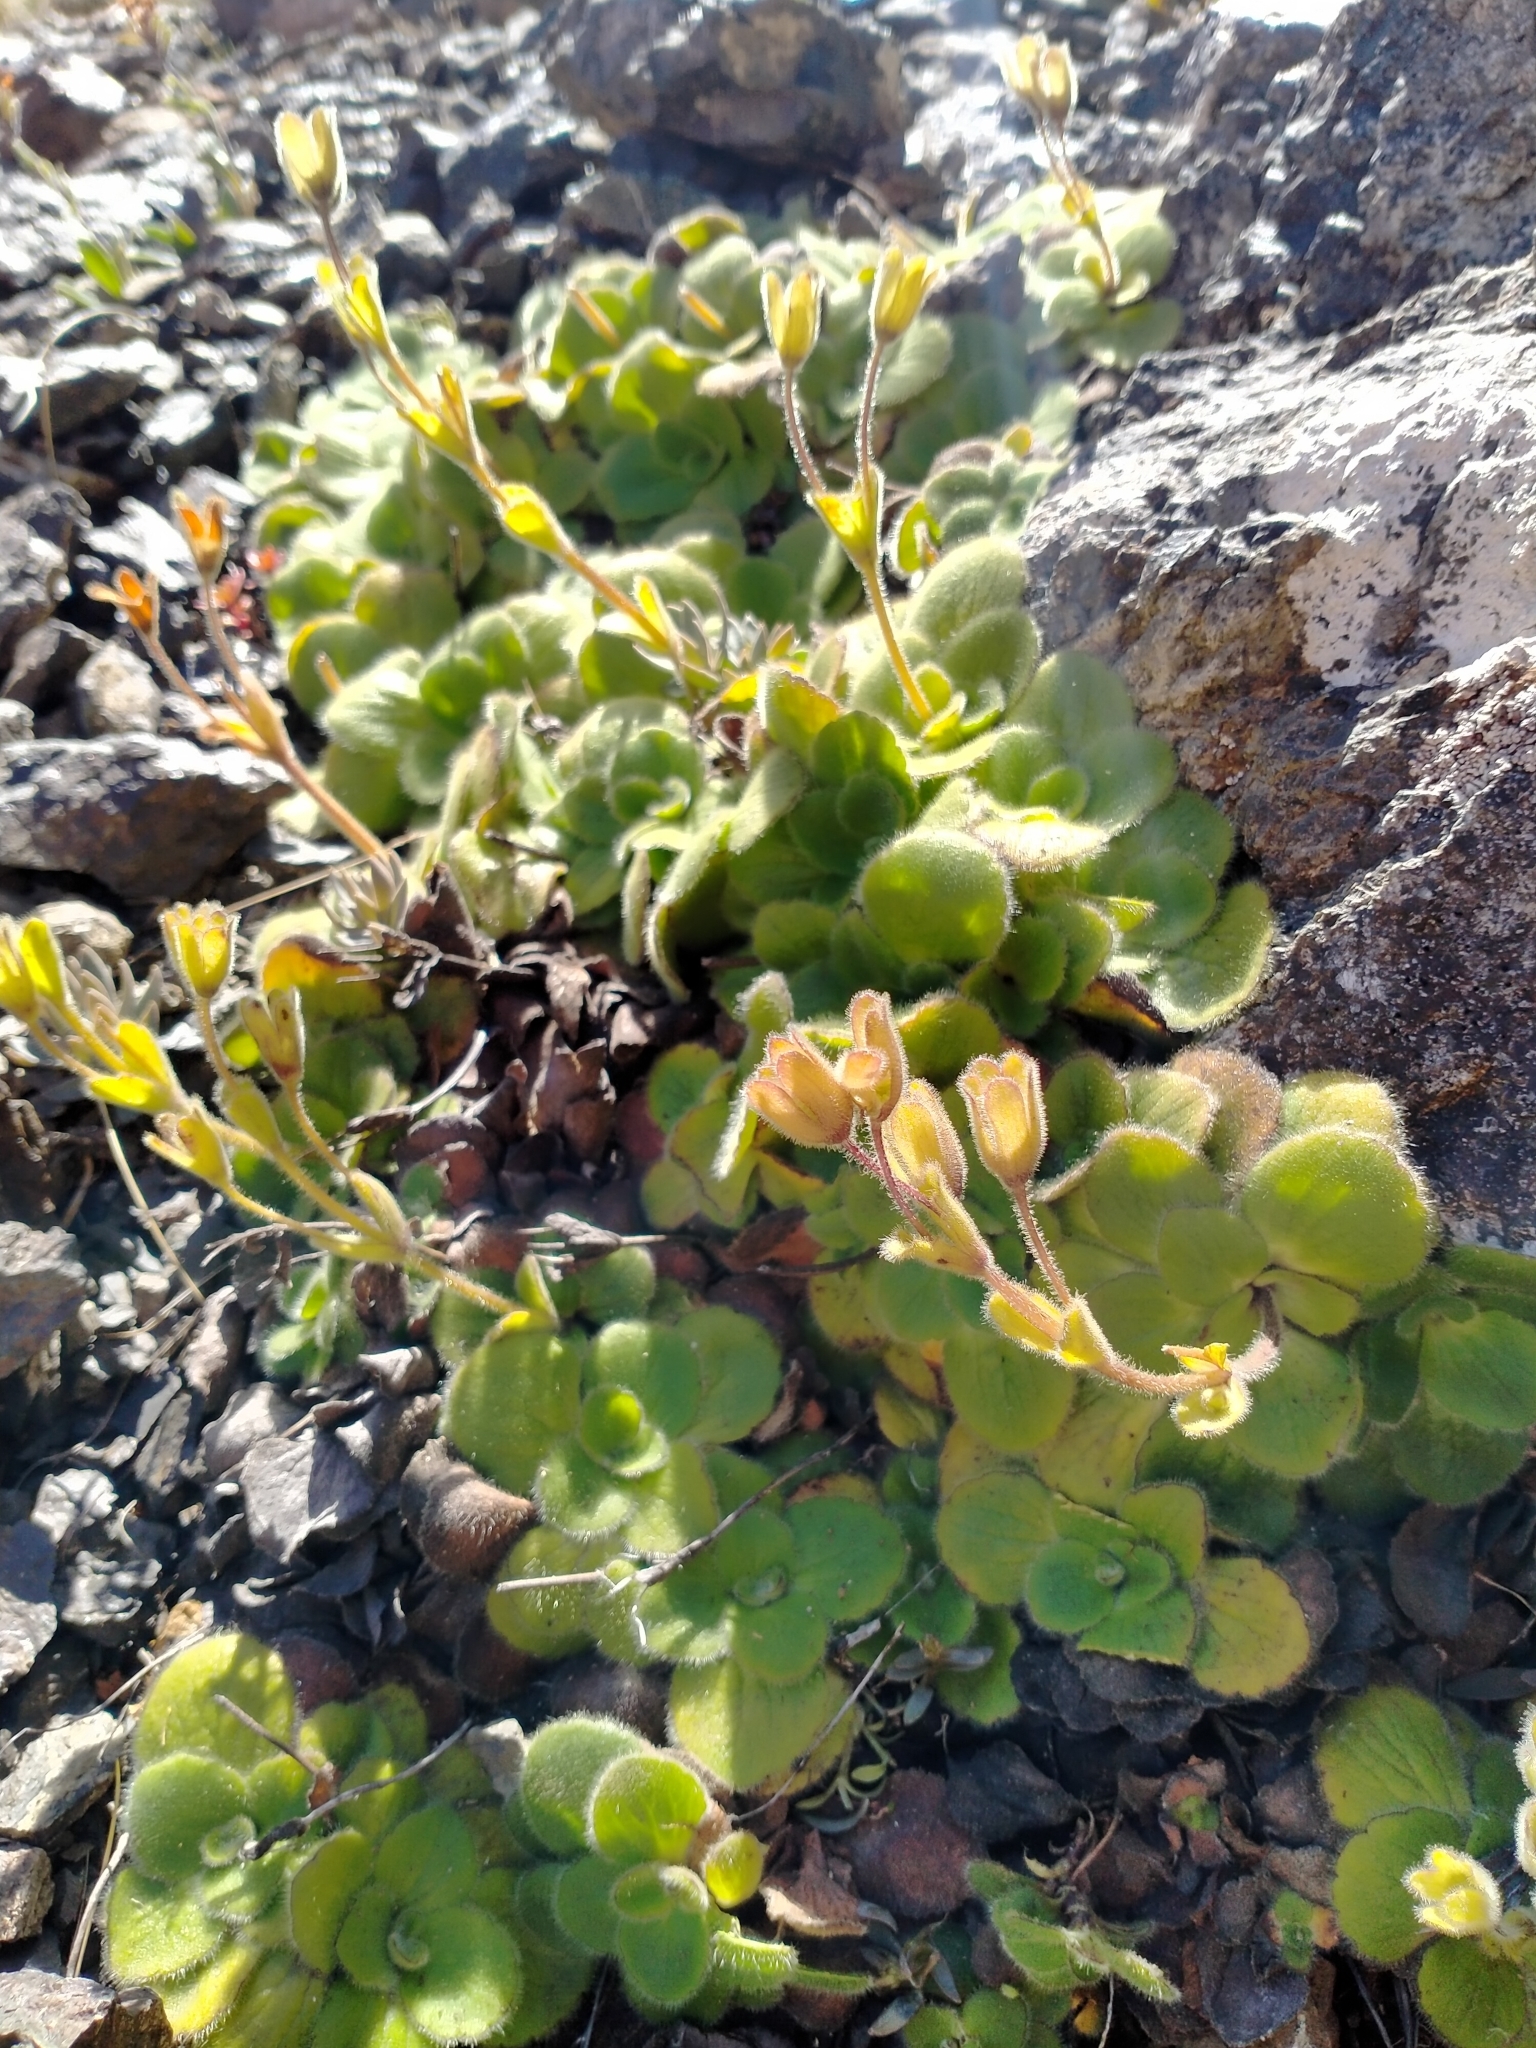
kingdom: Plantae
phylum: Tracheophyta
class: Magnoliopsida
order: Lamiales
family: Plantaginaceae
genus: Ourisia
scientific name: Ourisia spathulata
